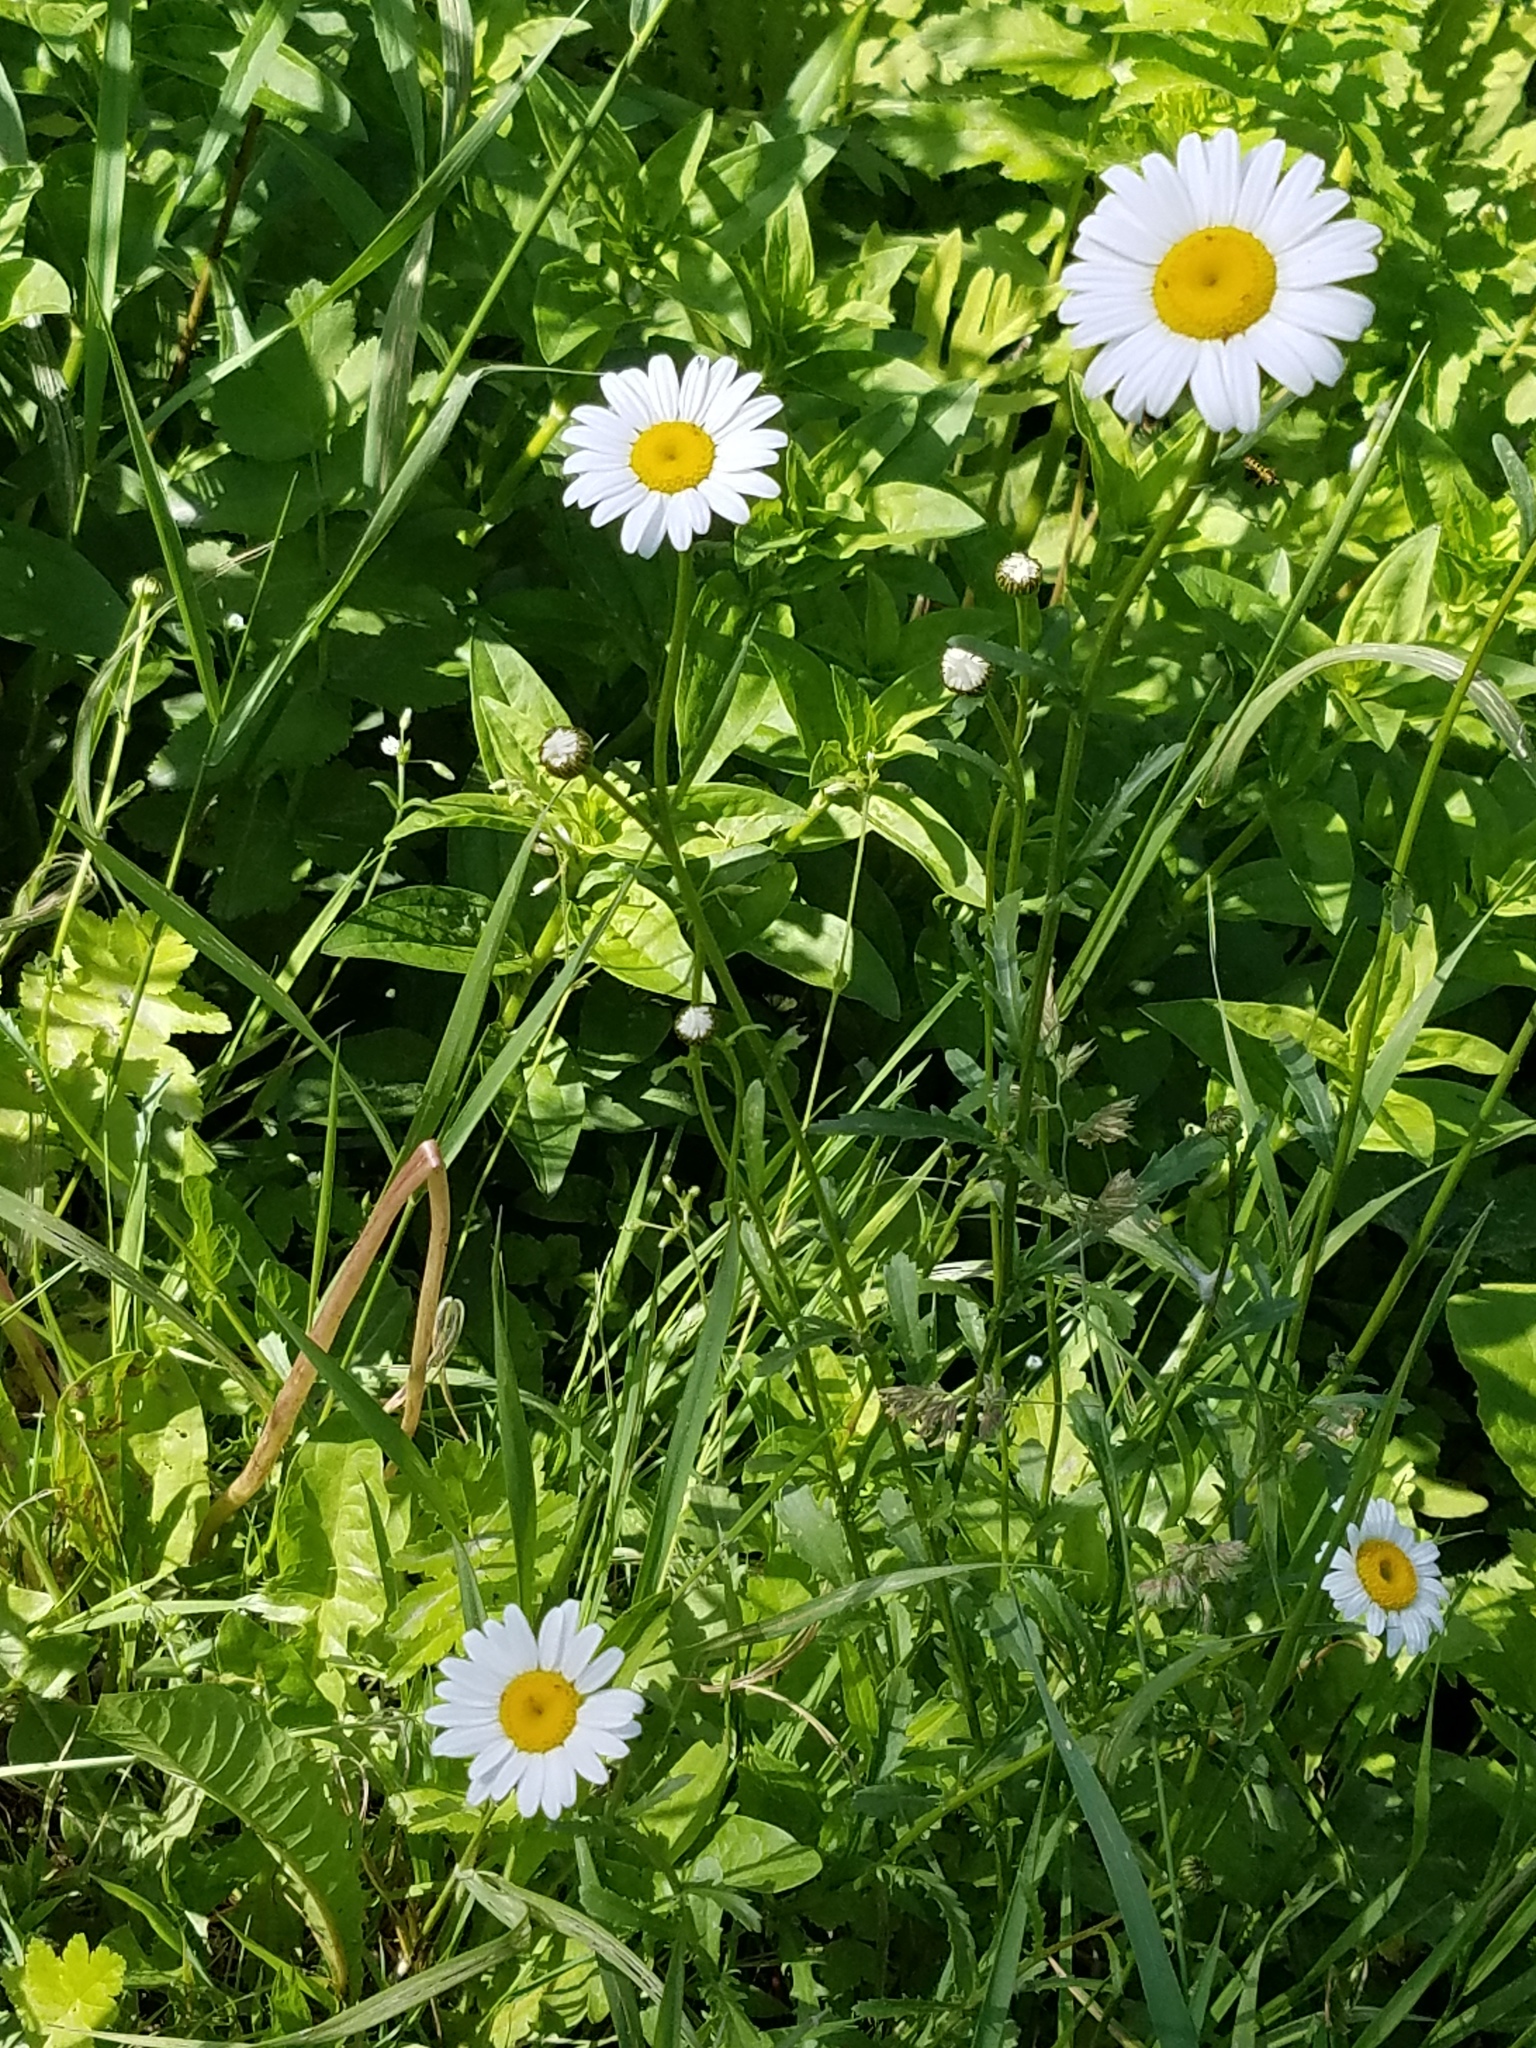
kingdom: Plantae
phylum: Tracheophyta
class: Magnoliopsida
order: Asterales
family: Asteraceae
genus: Leucanthemum
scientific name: Leucanthemum vulgare
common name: Oxeye daisy
